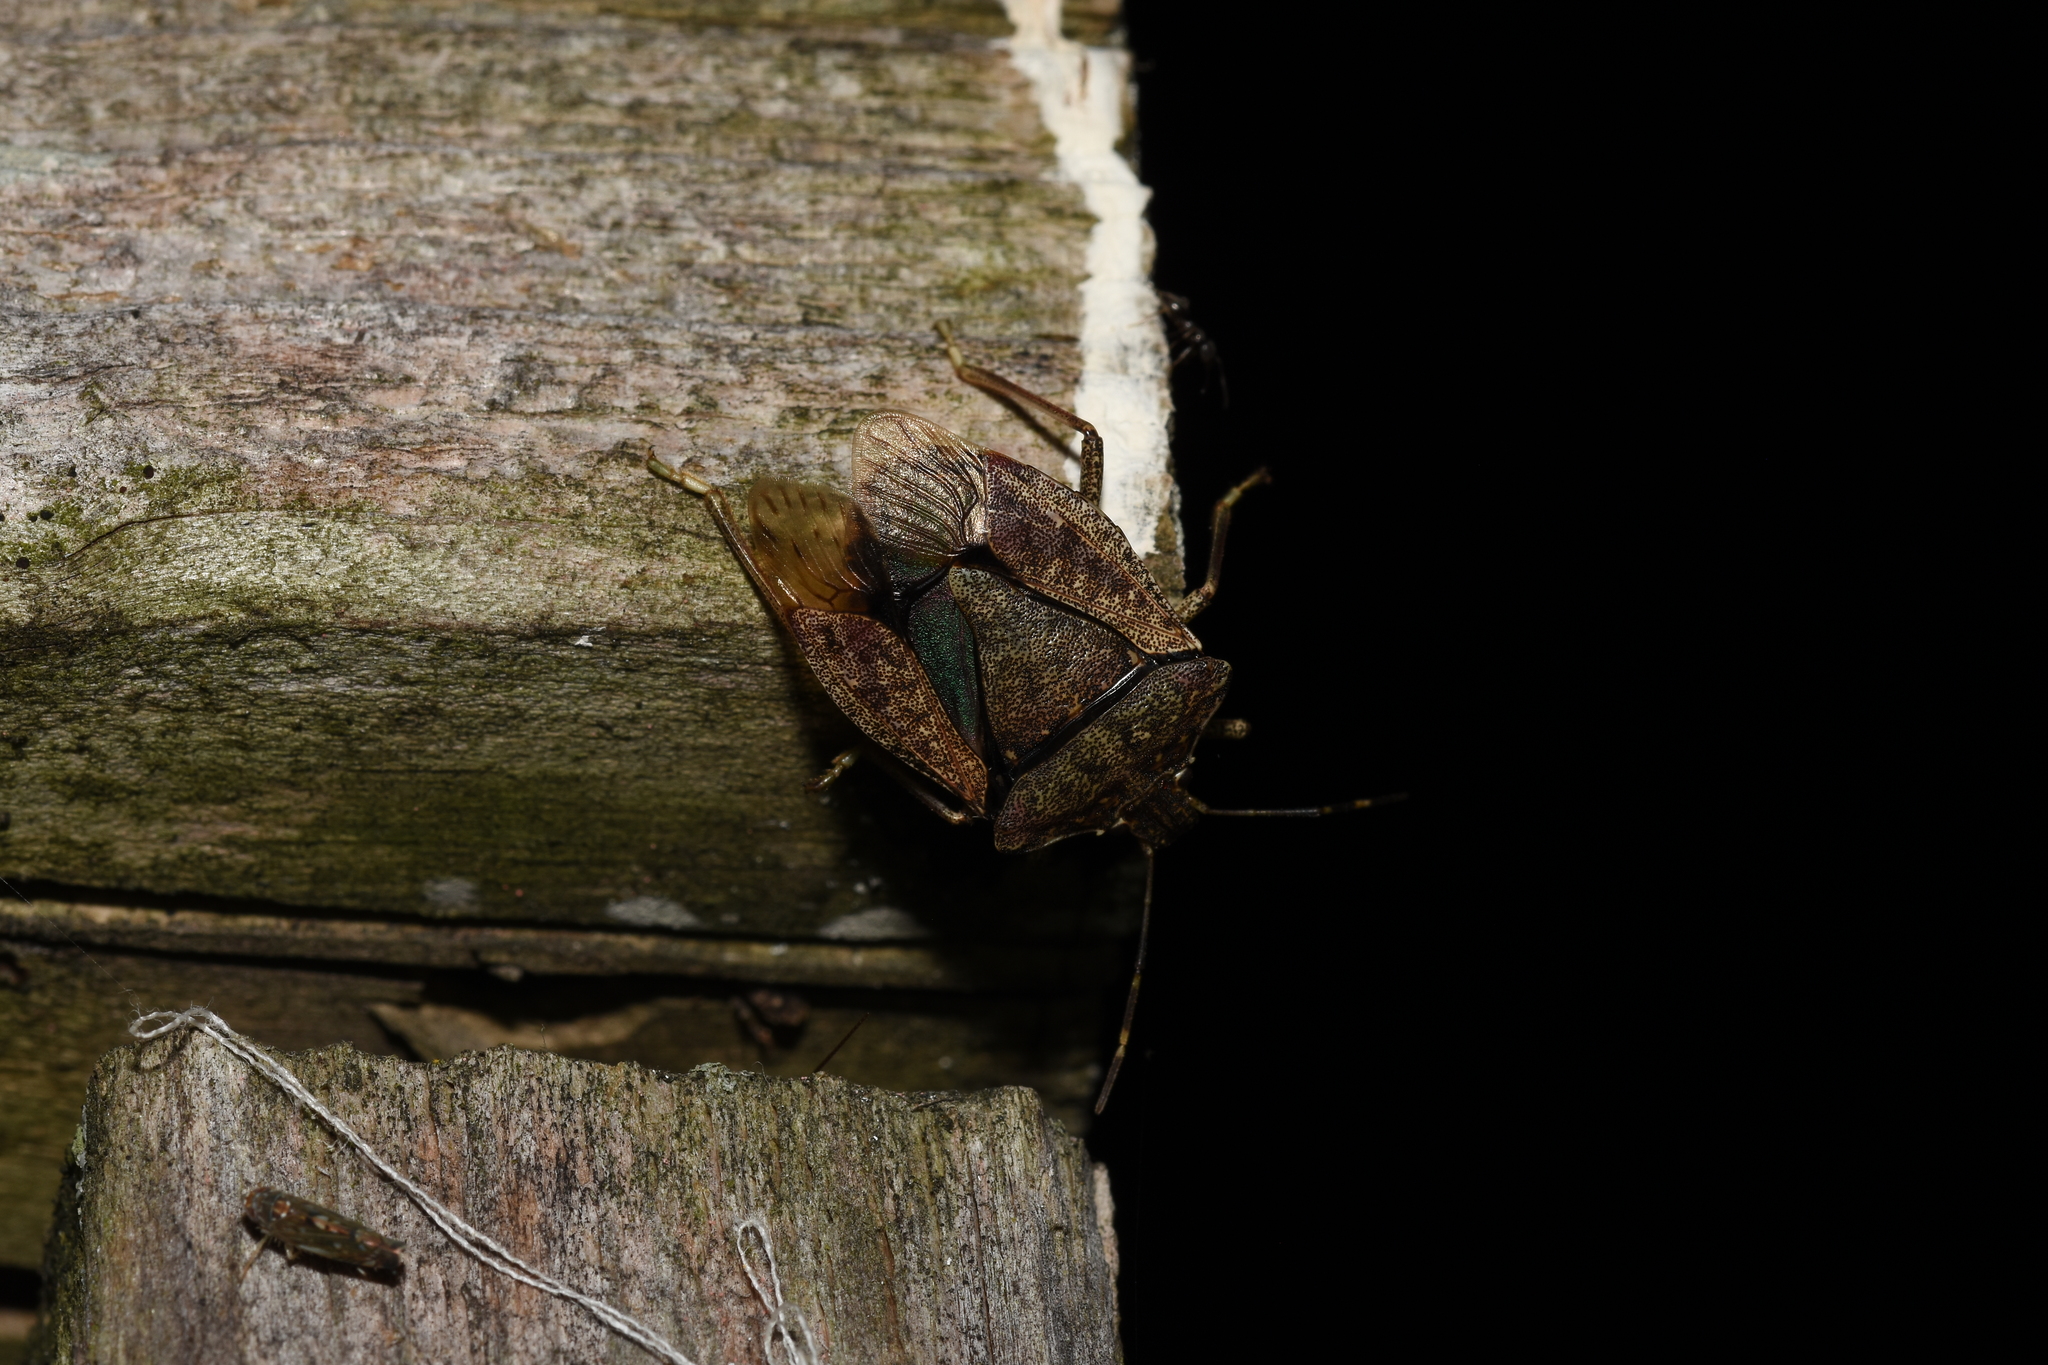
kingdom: Animalia
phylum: Arthropoda
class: Insecta
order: Hemiptera
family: Pentatomidae
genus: Halyomorpha
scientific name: Halyomorpha halys
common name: Brown marmorated stink bug
